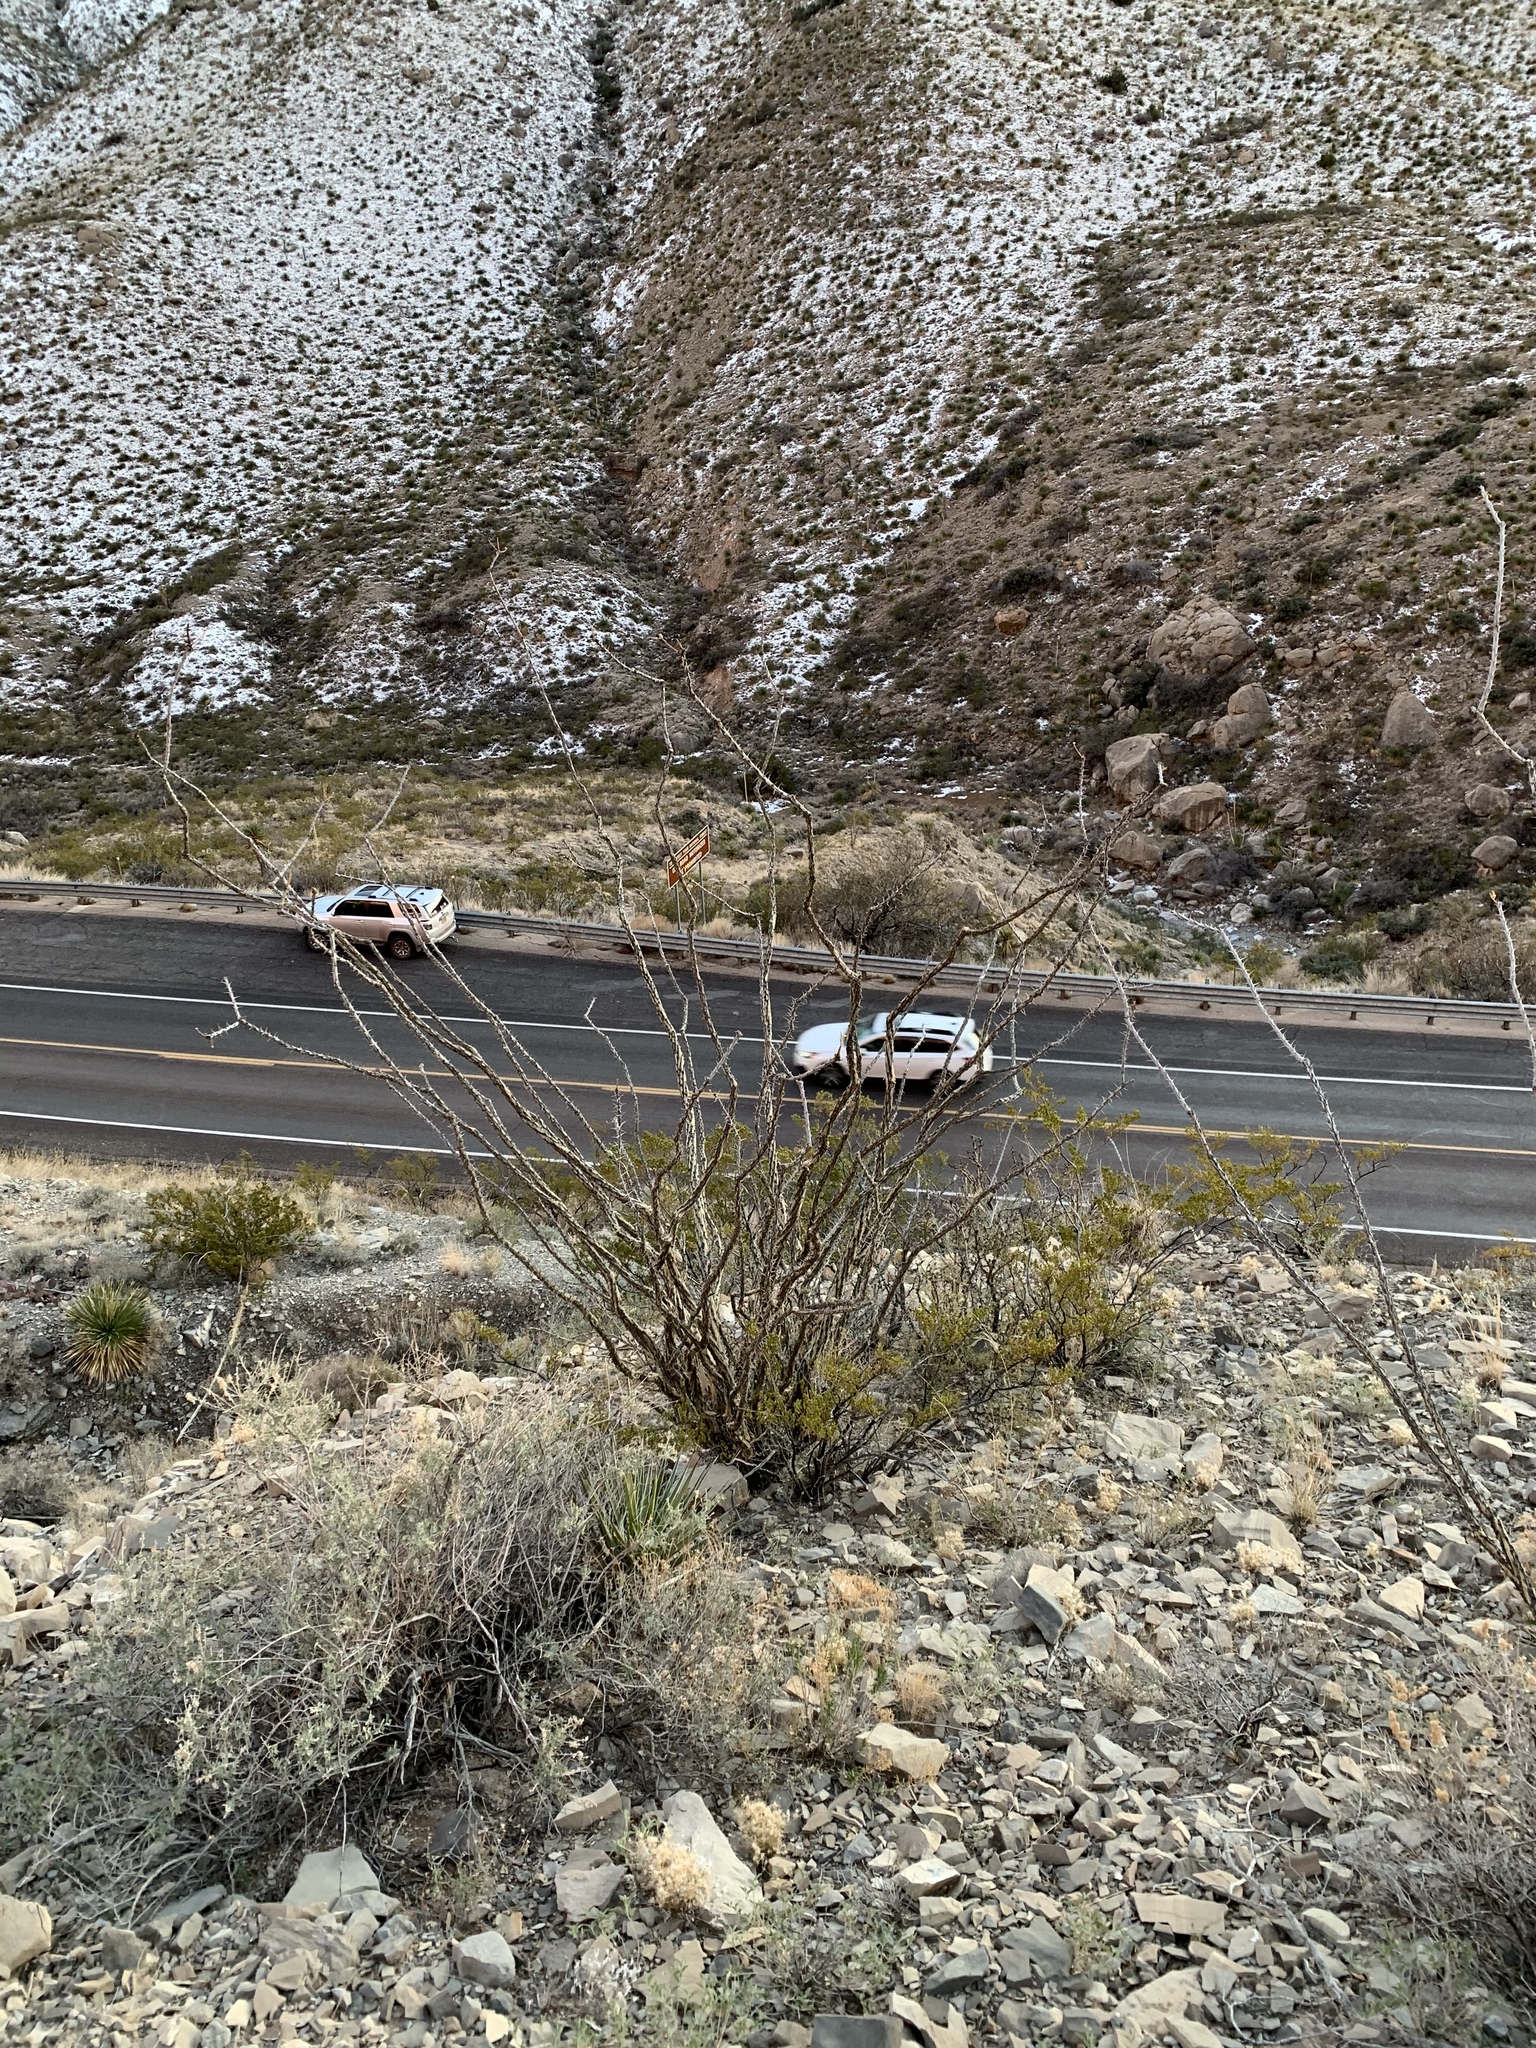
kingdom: Plantae
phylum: Tracheophyta
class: Magnoliopsida
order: Ericales
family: Fouquieriaceae
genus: Fouquieria
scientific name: Fouquieria splendens
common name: Vine-cactus
